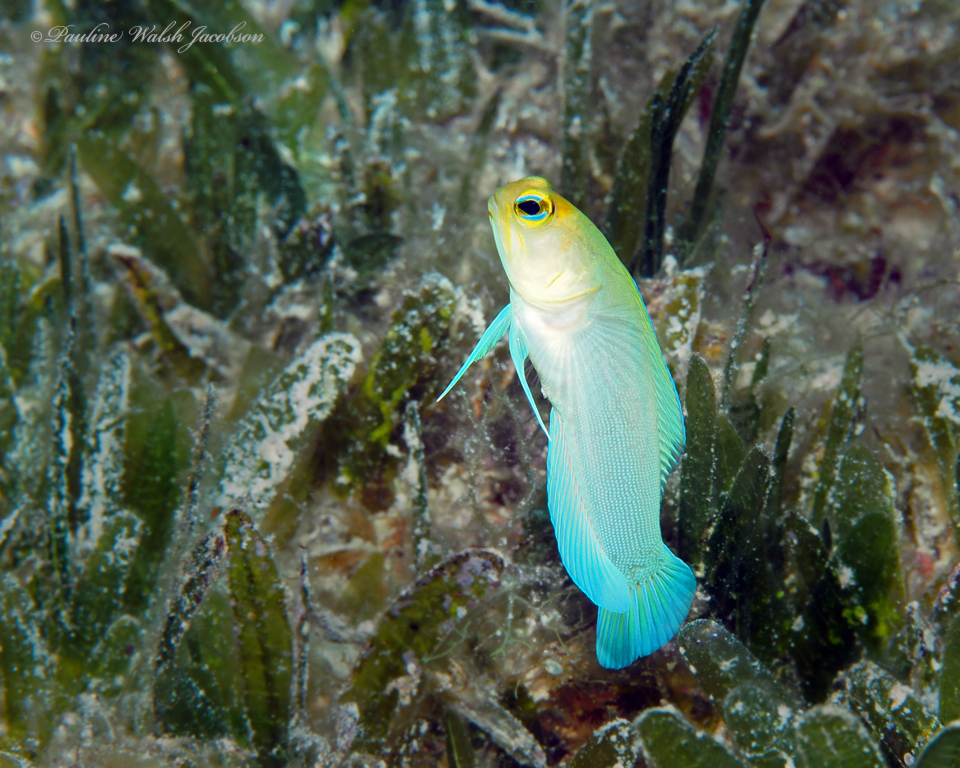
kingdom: Animalia
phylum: Chordata
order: Perciformes
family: Opistognathidae
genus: Opistognathus
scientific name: Opistognathus aurifrons
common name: Yellowhead jawfish
